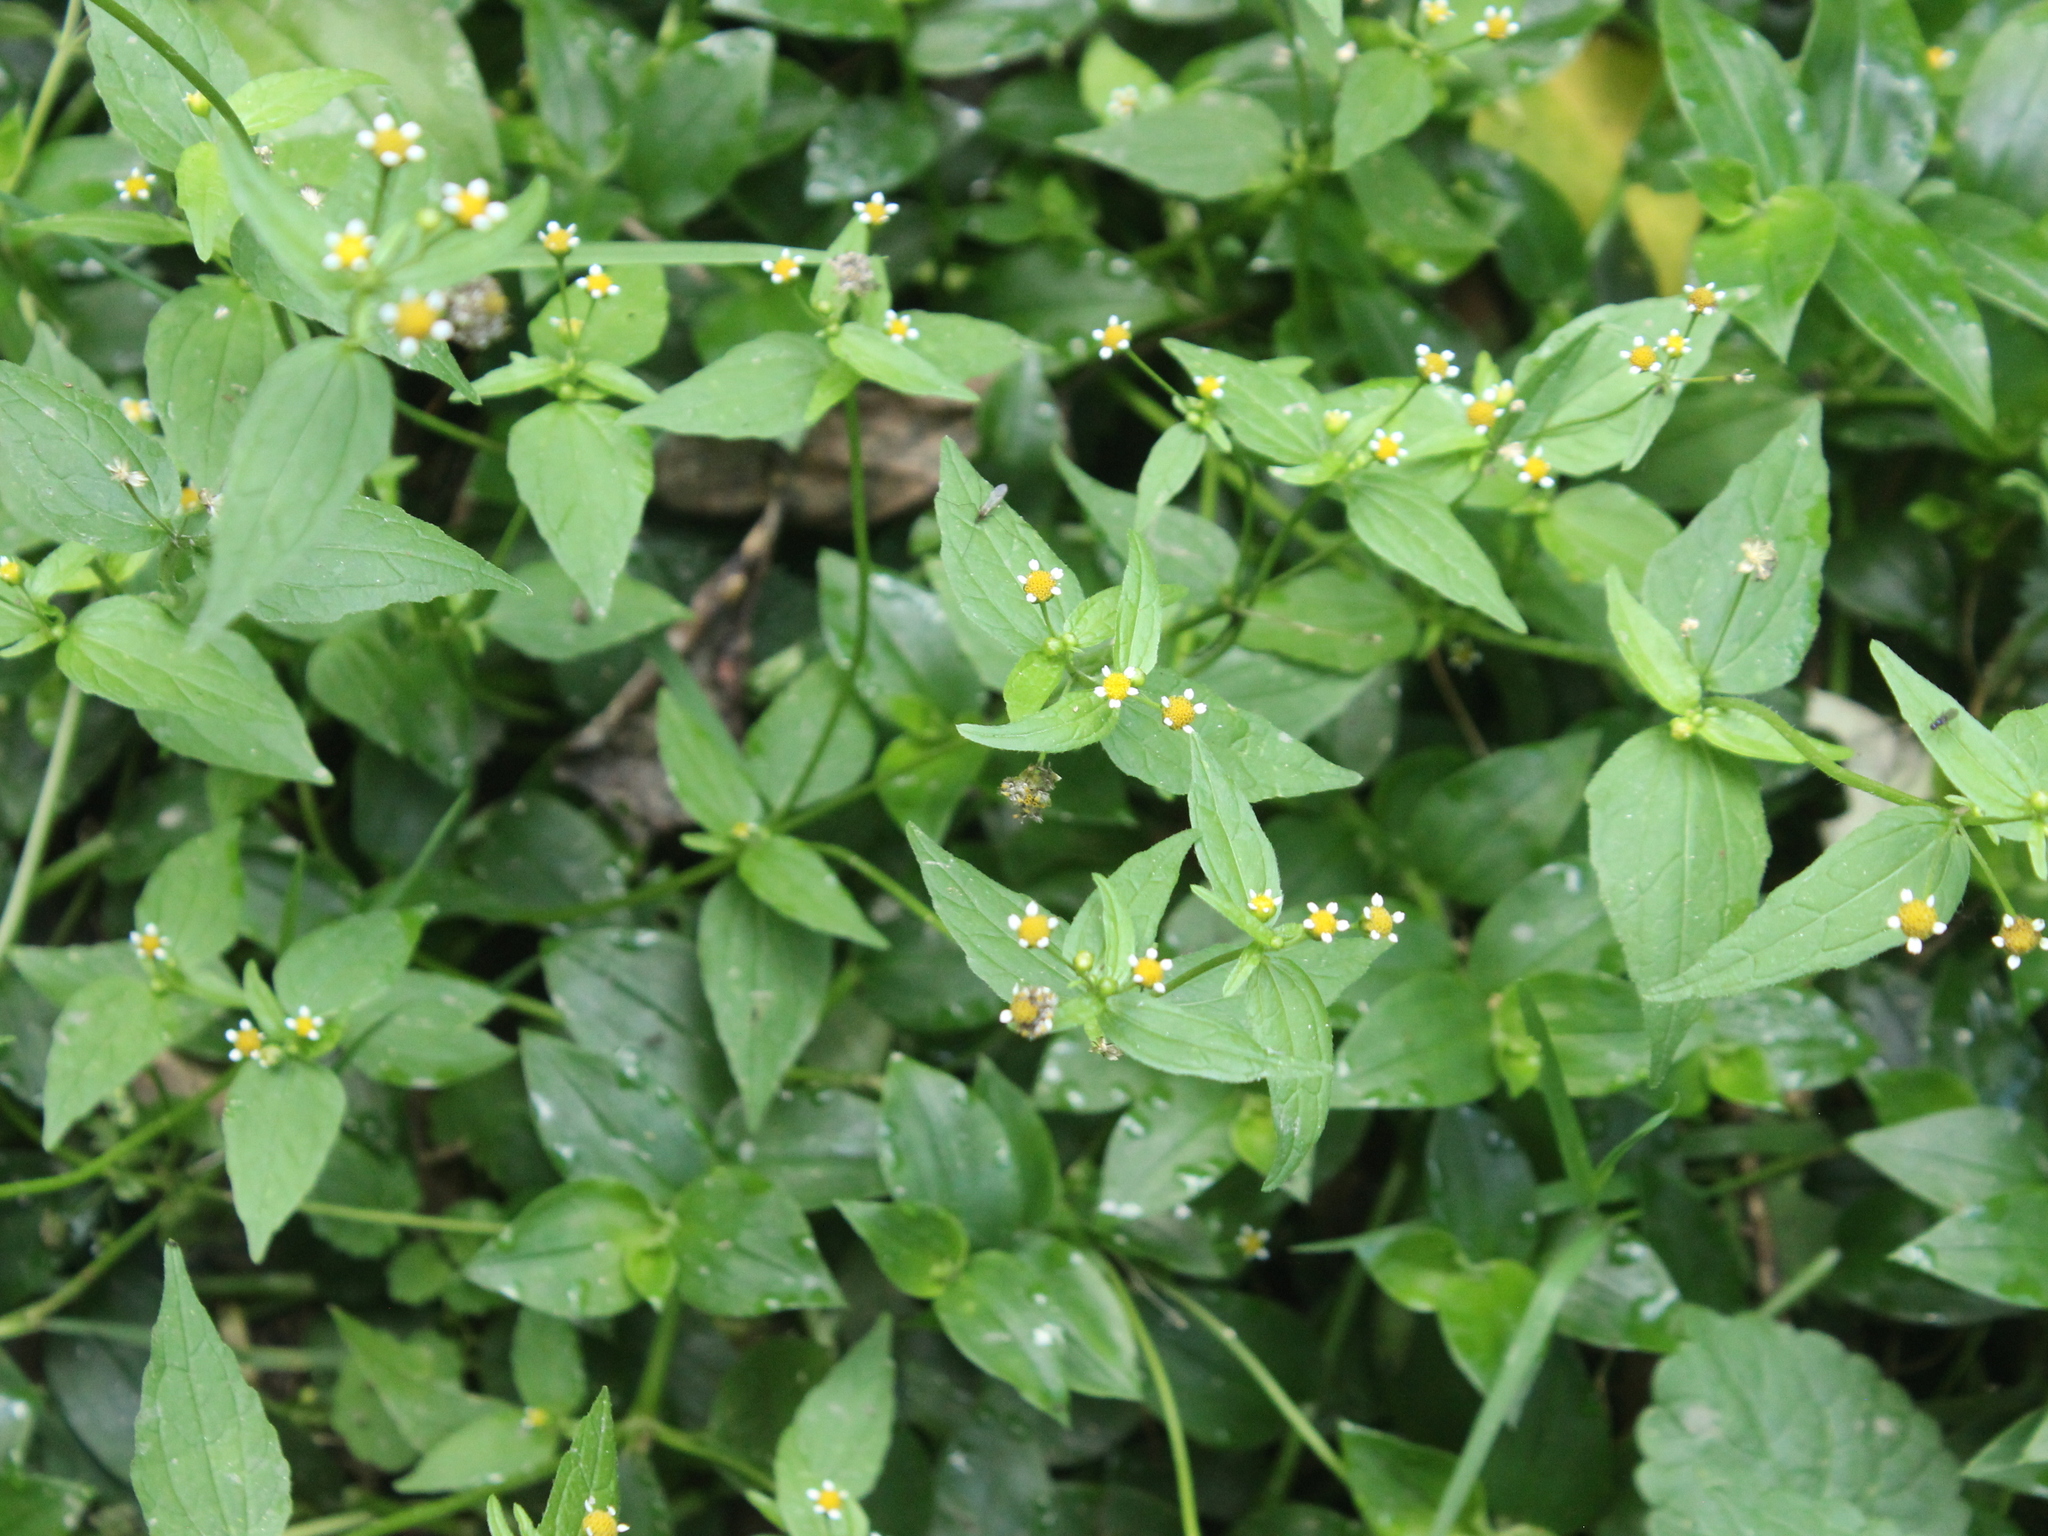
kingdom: Plantae
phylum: Tracheophyta
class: Magnoliopsida
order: Asterales
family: Asteraceae
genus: Galinsoga
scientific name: Galinsoga parviflora
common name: Gallant soldier
